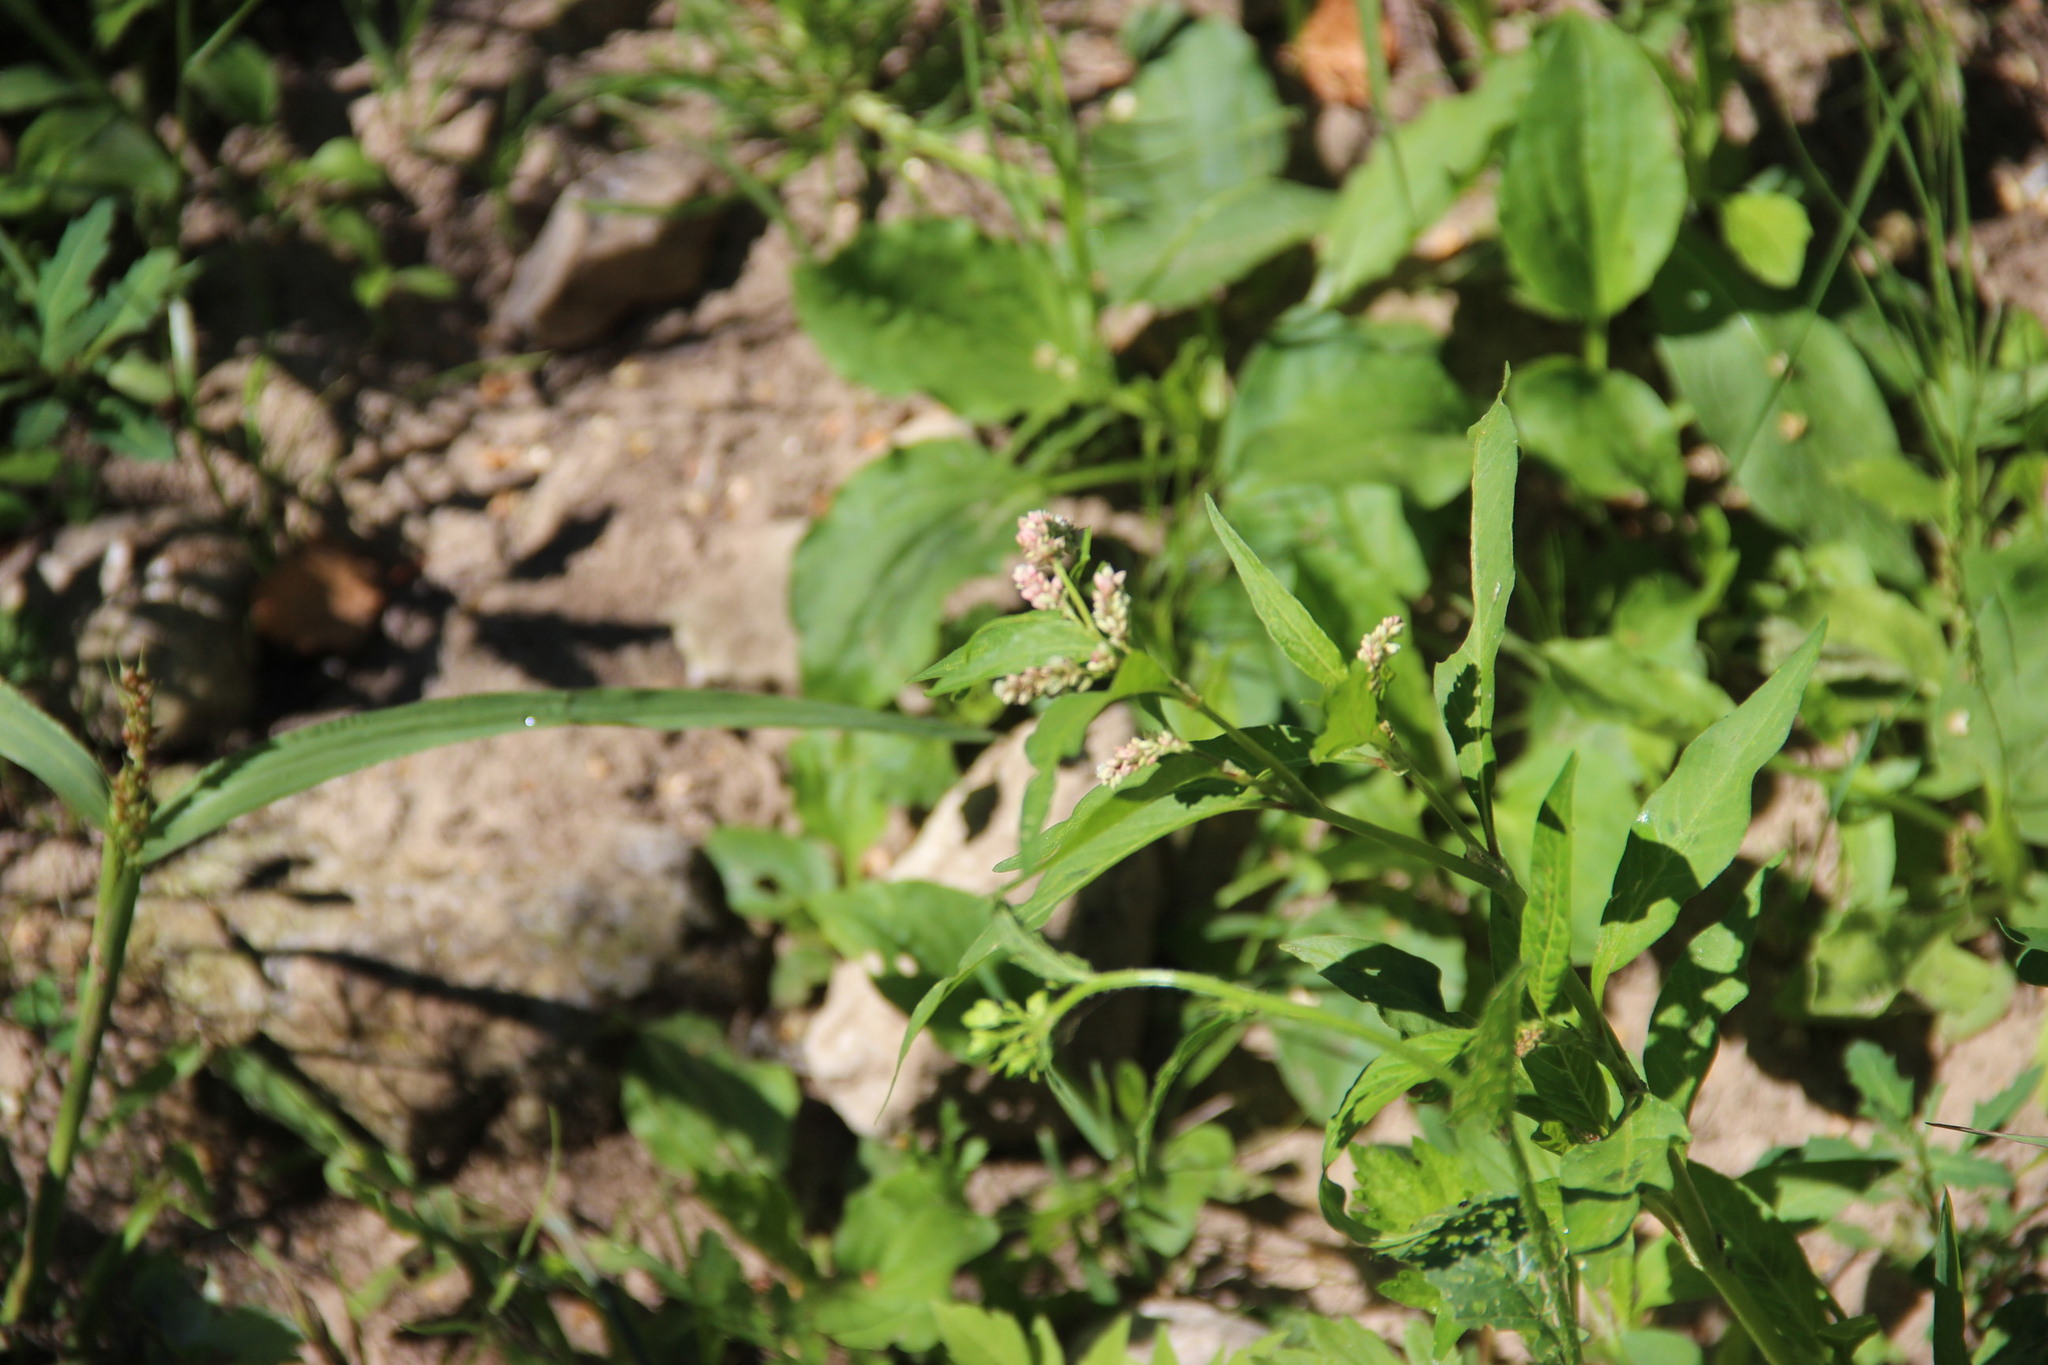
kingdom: Plantae
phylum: Tracheophyta
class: Magnoliopsida
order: Caryophyllales
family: Polygonaceae
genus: Persicaria
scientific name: Persicaria lapathifolia
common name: Curlytop knotweed
